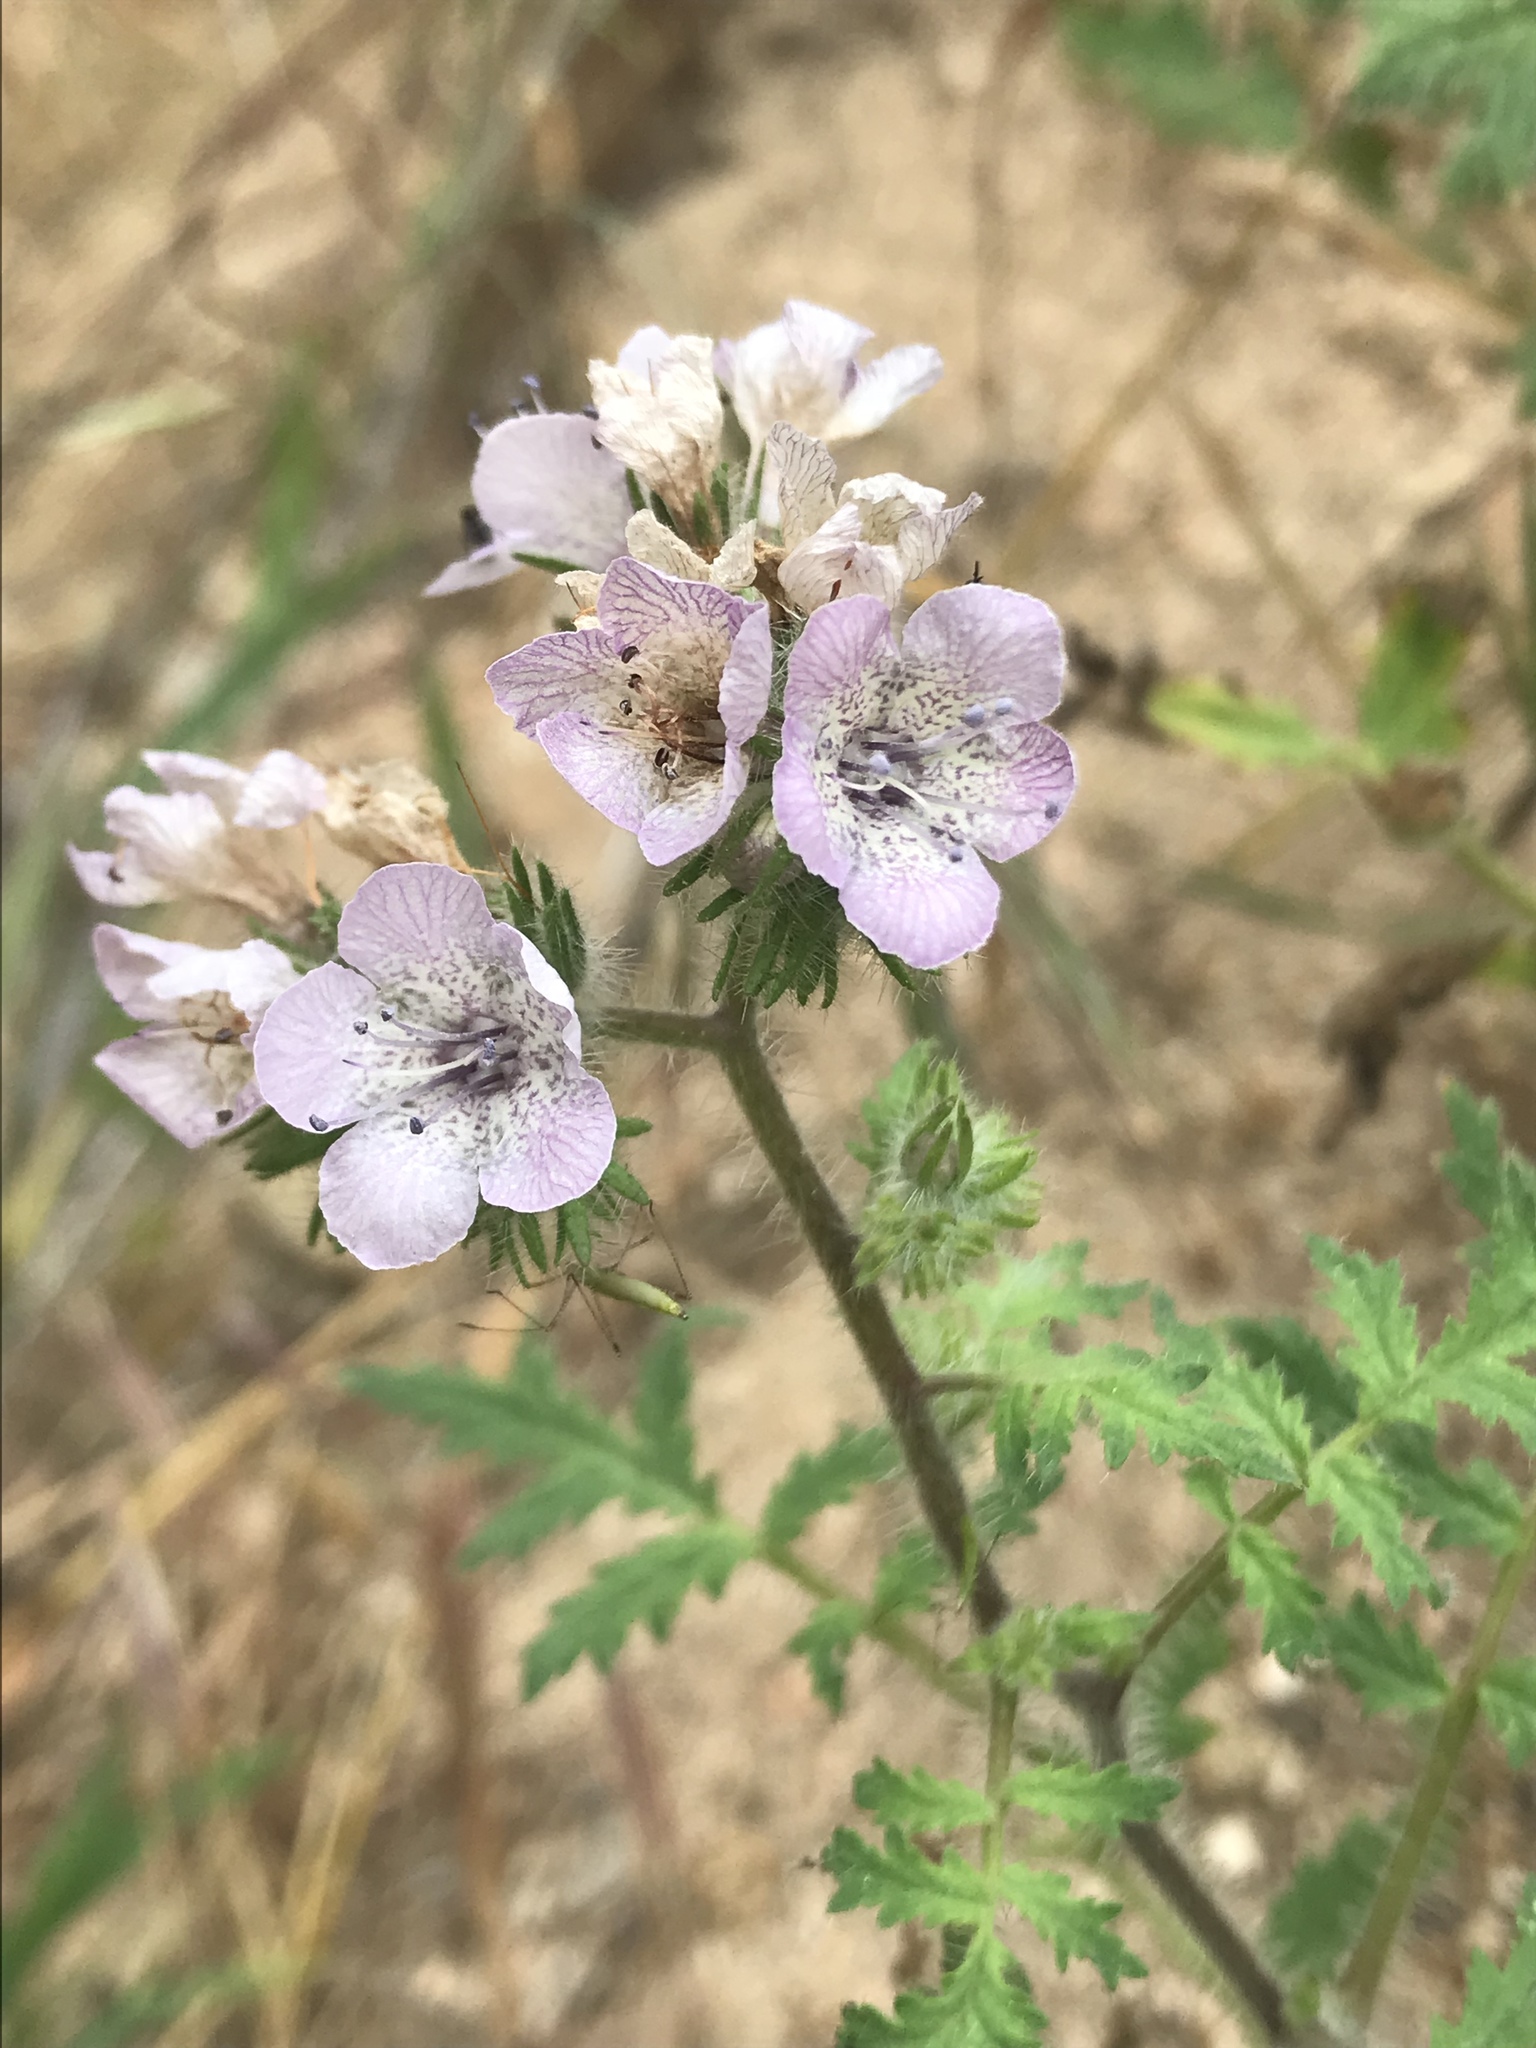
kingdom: Plantae
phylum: Tracheophyta
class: Magnoliopsida
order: Boraginales
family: Hydrophyllaceae
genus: Phacelia
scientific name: Phacelia cicutaria
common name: Caterpillar phacelia
